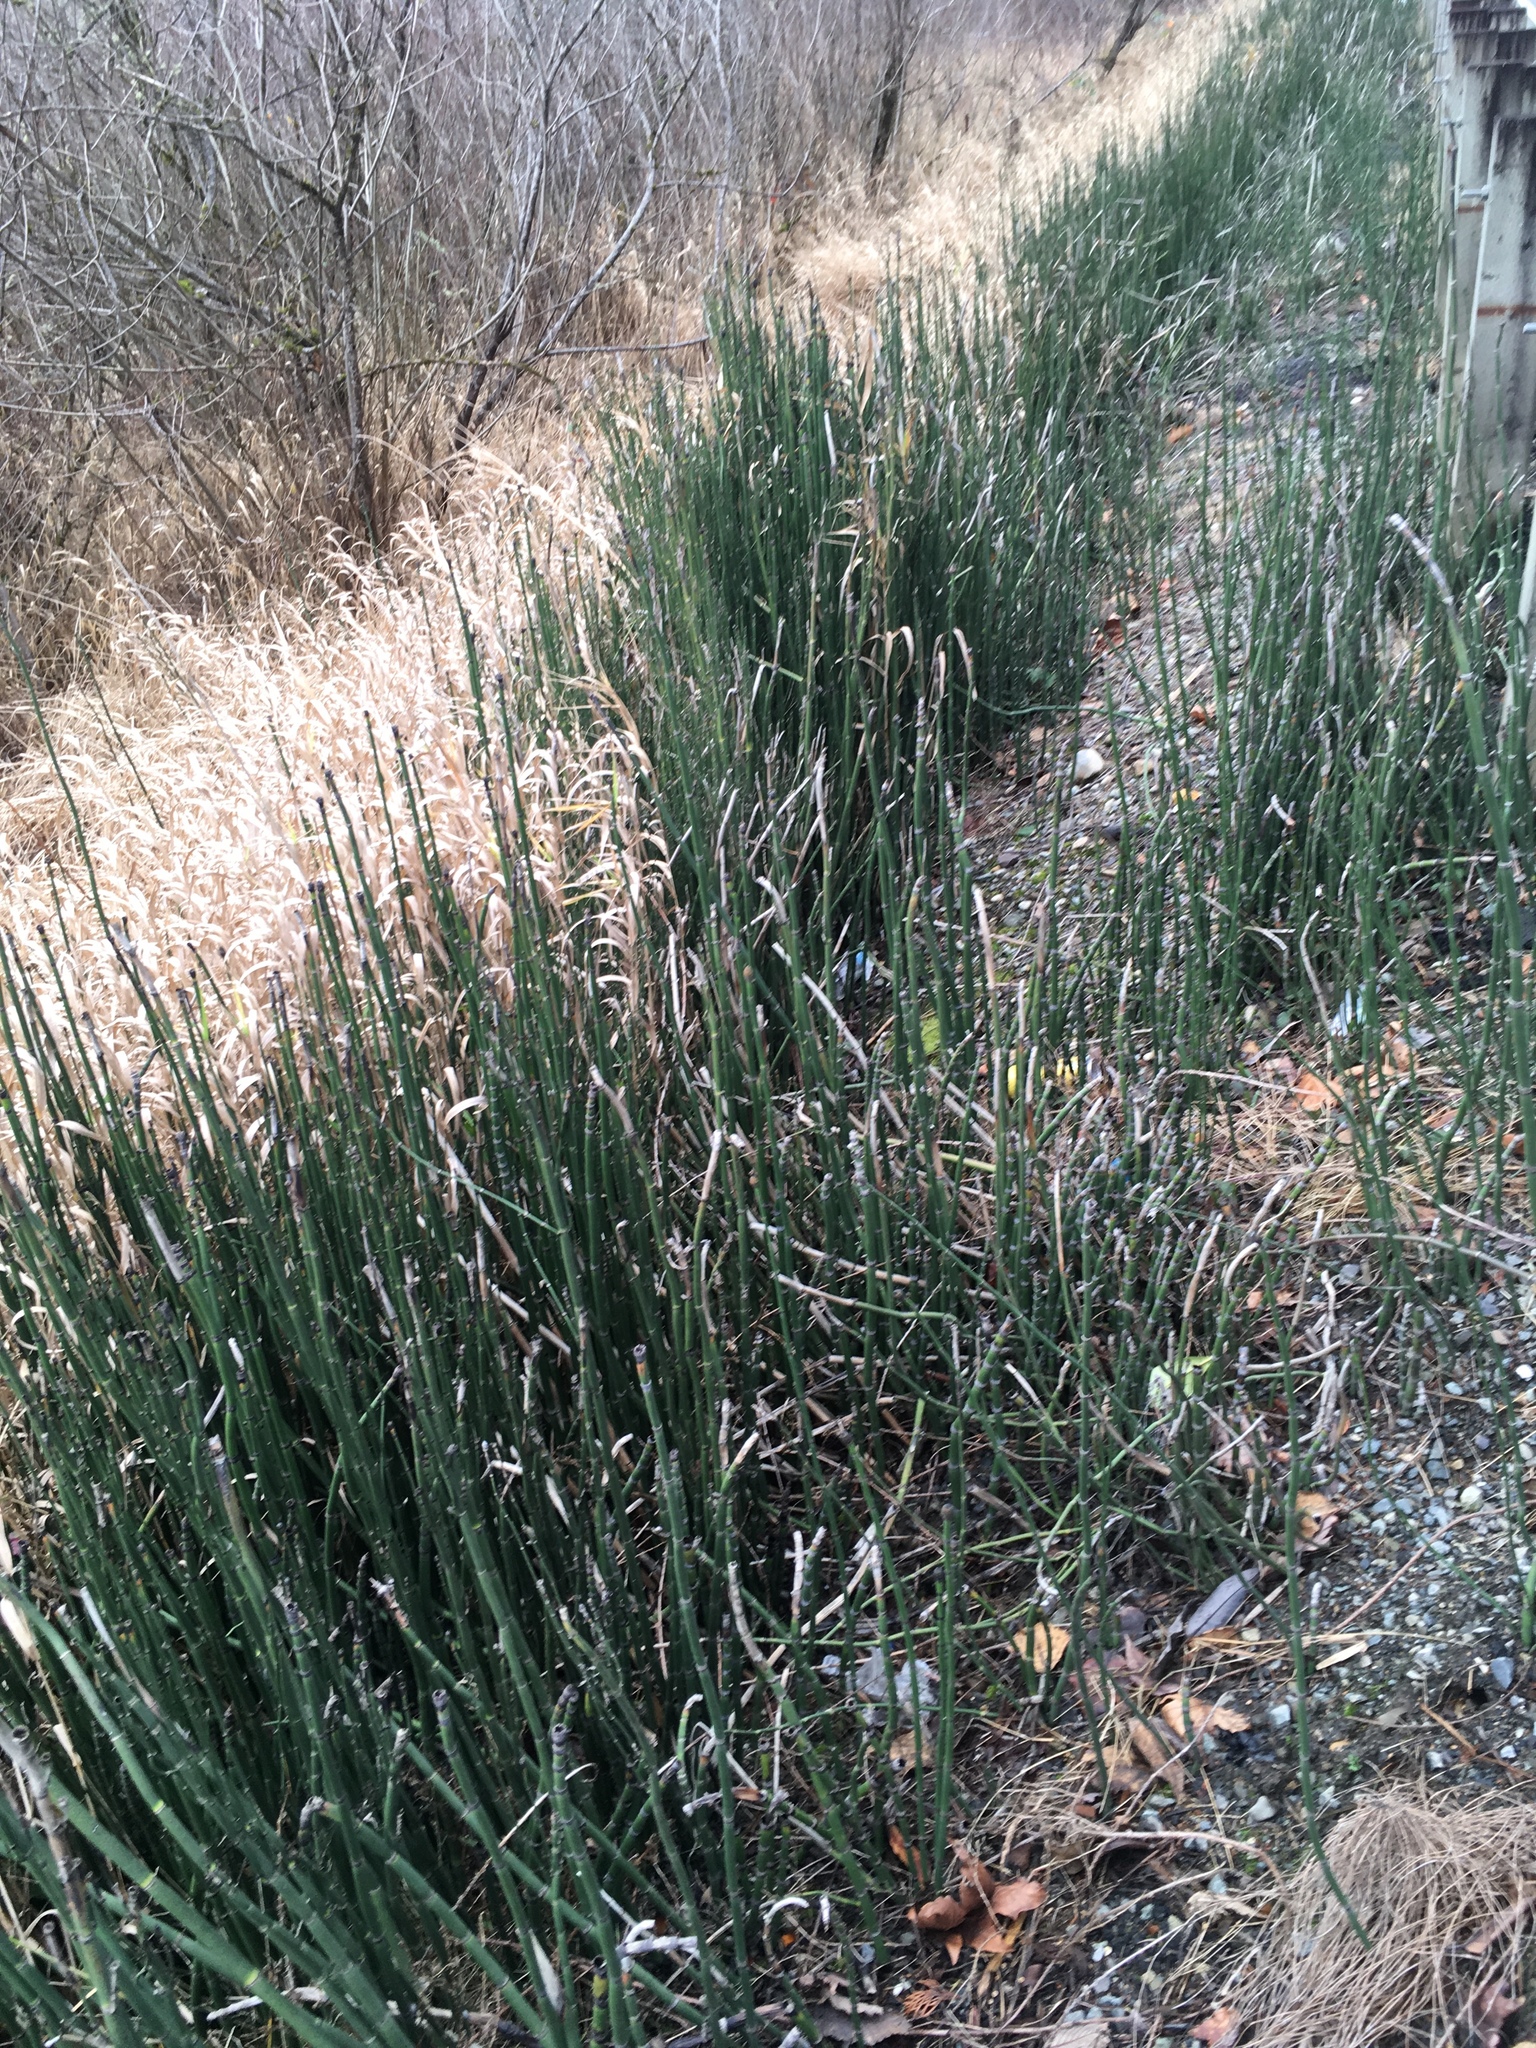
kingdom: Plantae
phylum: Tracheophyta
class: Polypodiopsida
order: Equisetales
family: Equisetaceae
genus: Equisetum
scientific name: Equisetum hyemale
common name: Rough horsetail
